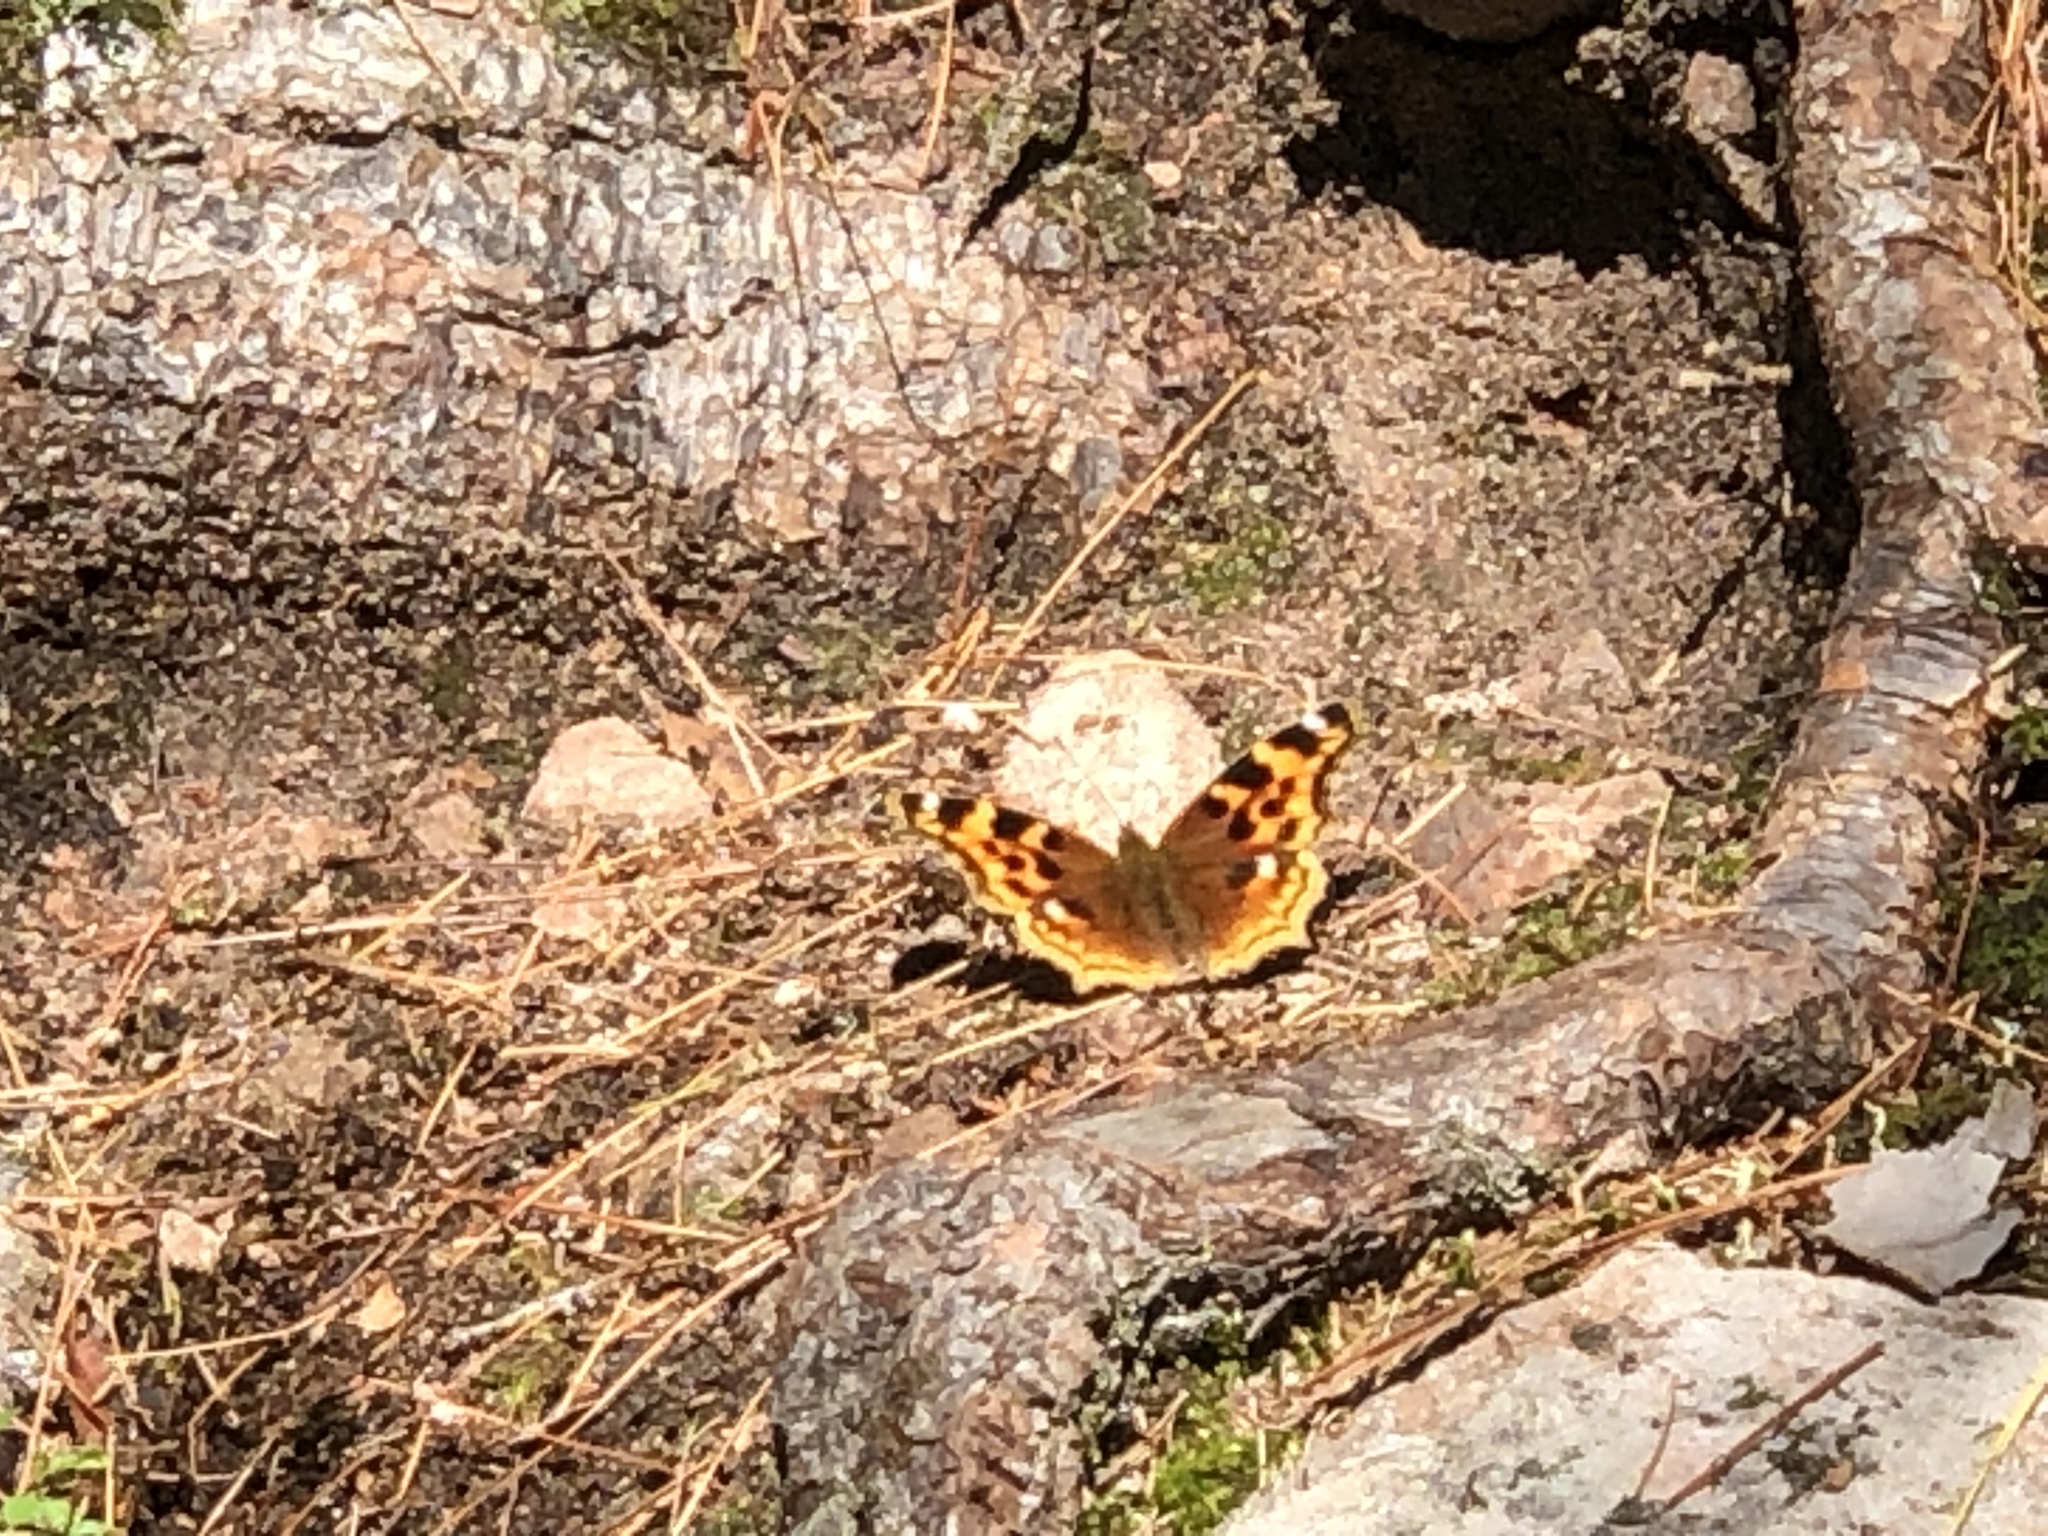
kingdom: Animalia
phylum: Arthropoda
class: Insecta
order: Lepidoptera
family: Nymphalidae
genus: Polygonia
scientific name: Polygonia vaualbum
